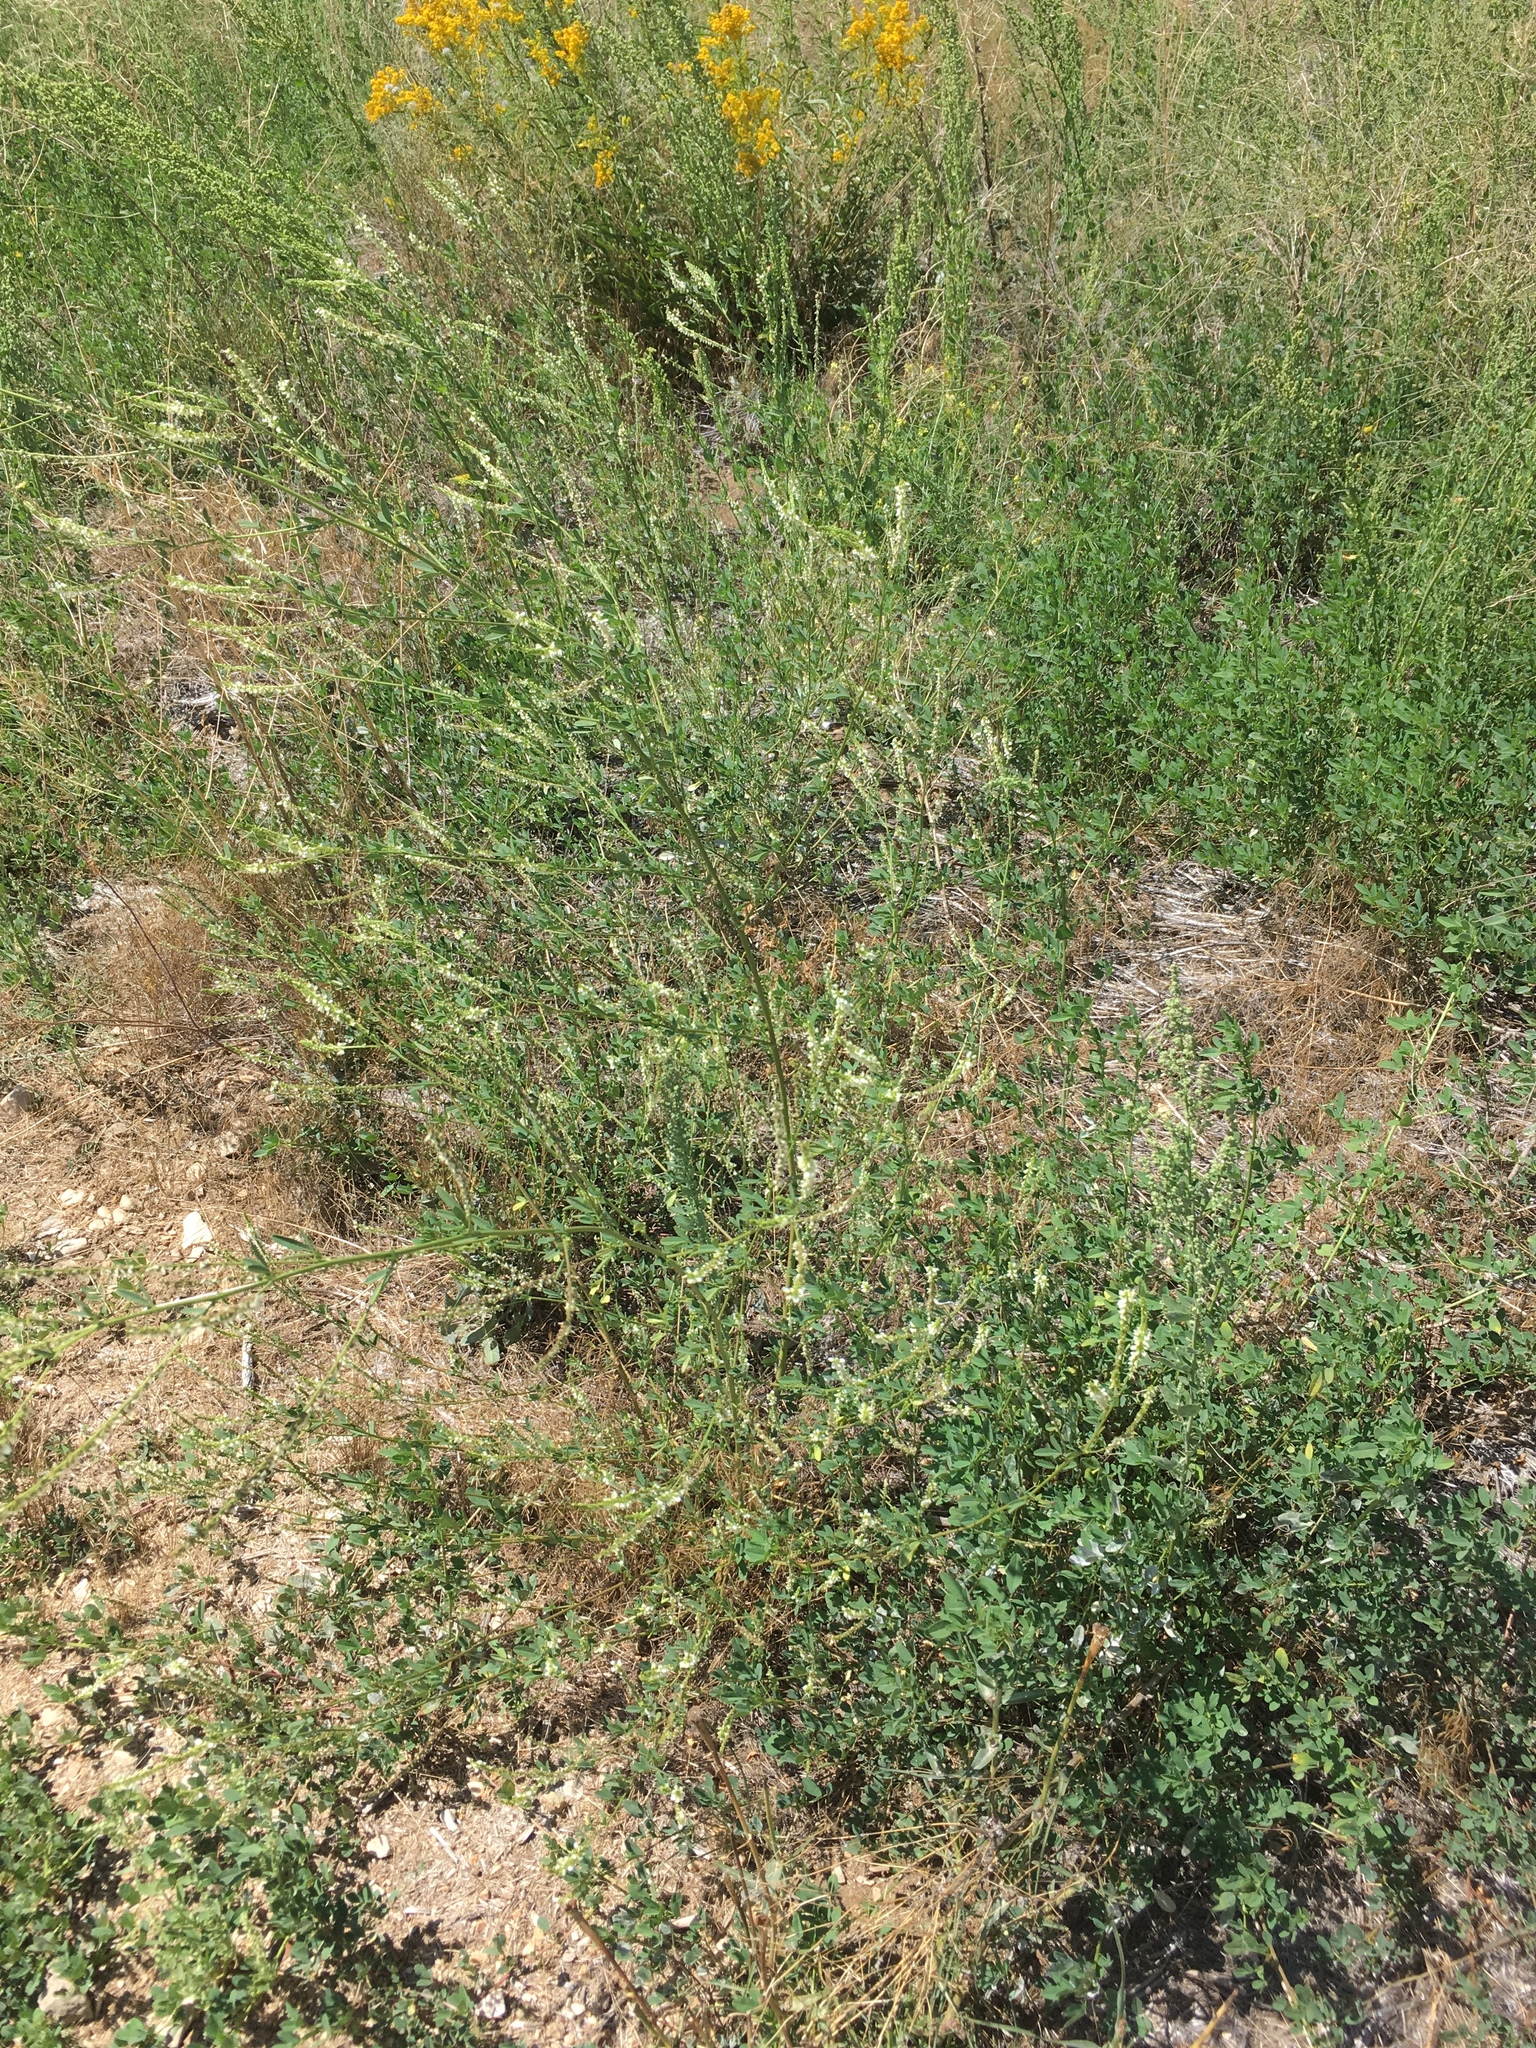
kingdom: Plantae
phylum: Tracheophyta
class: Magnoliopsida
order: Fabales
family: Fabaceae
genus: Melilotus
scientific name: Melilotus albus
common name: White melilot
